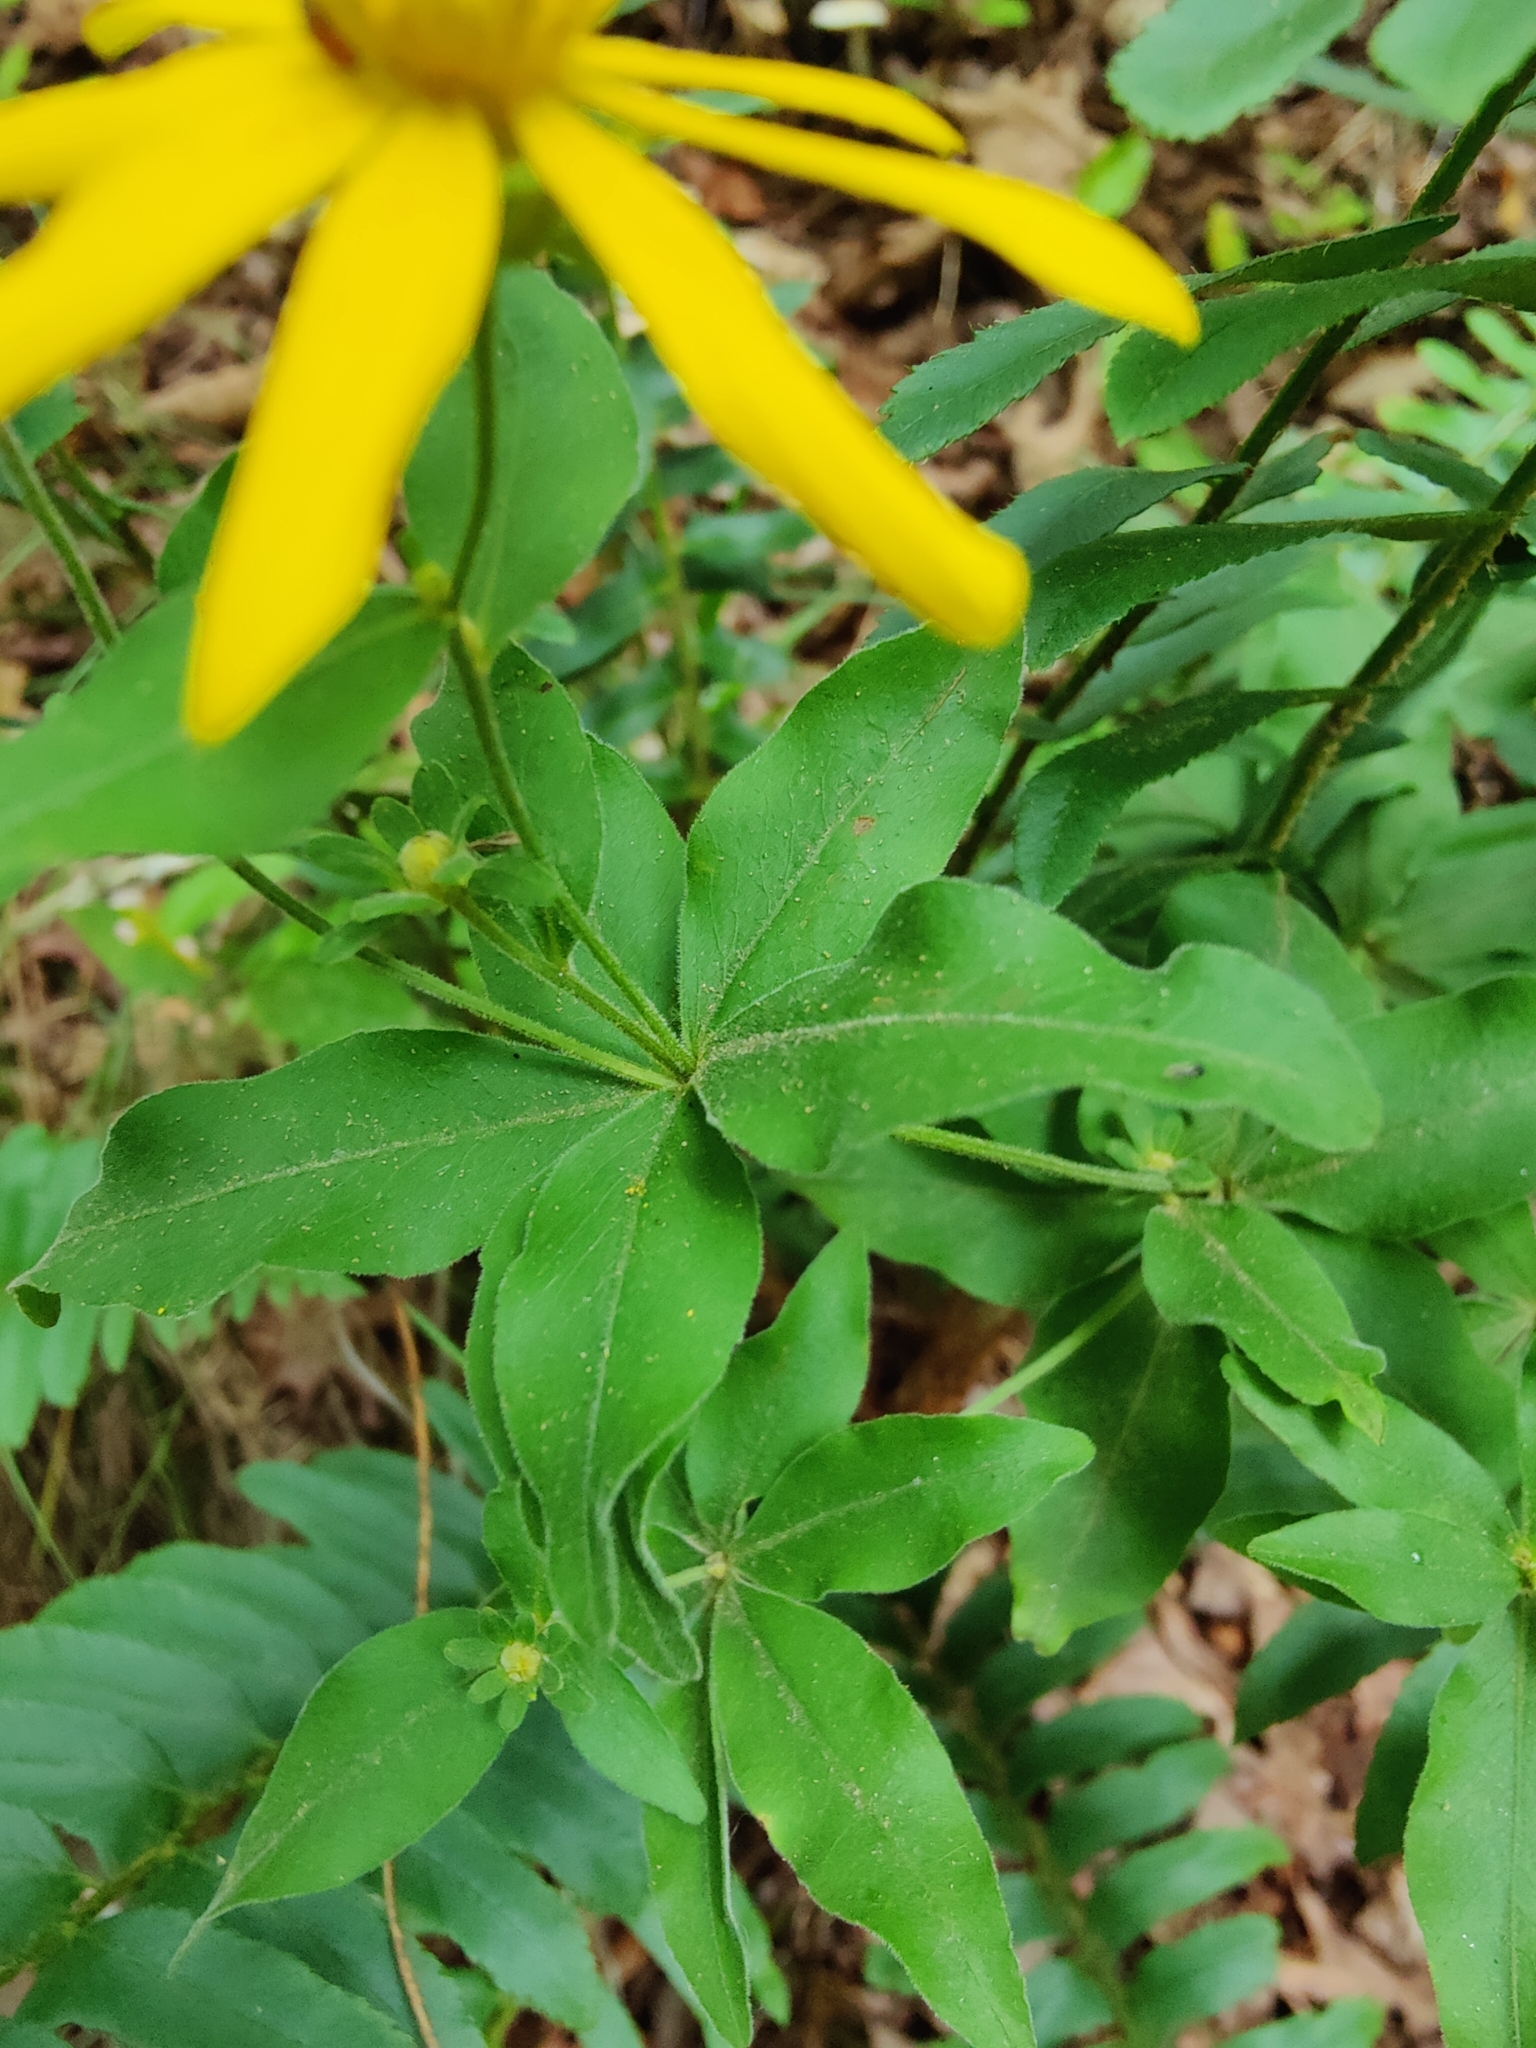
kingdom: Plantae
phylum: Tracheophyta
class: Magnoliopsida
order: Asterales
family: Asteraceae
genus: Coreopsis
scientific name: Coreopsis major
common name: Forest tickseed
